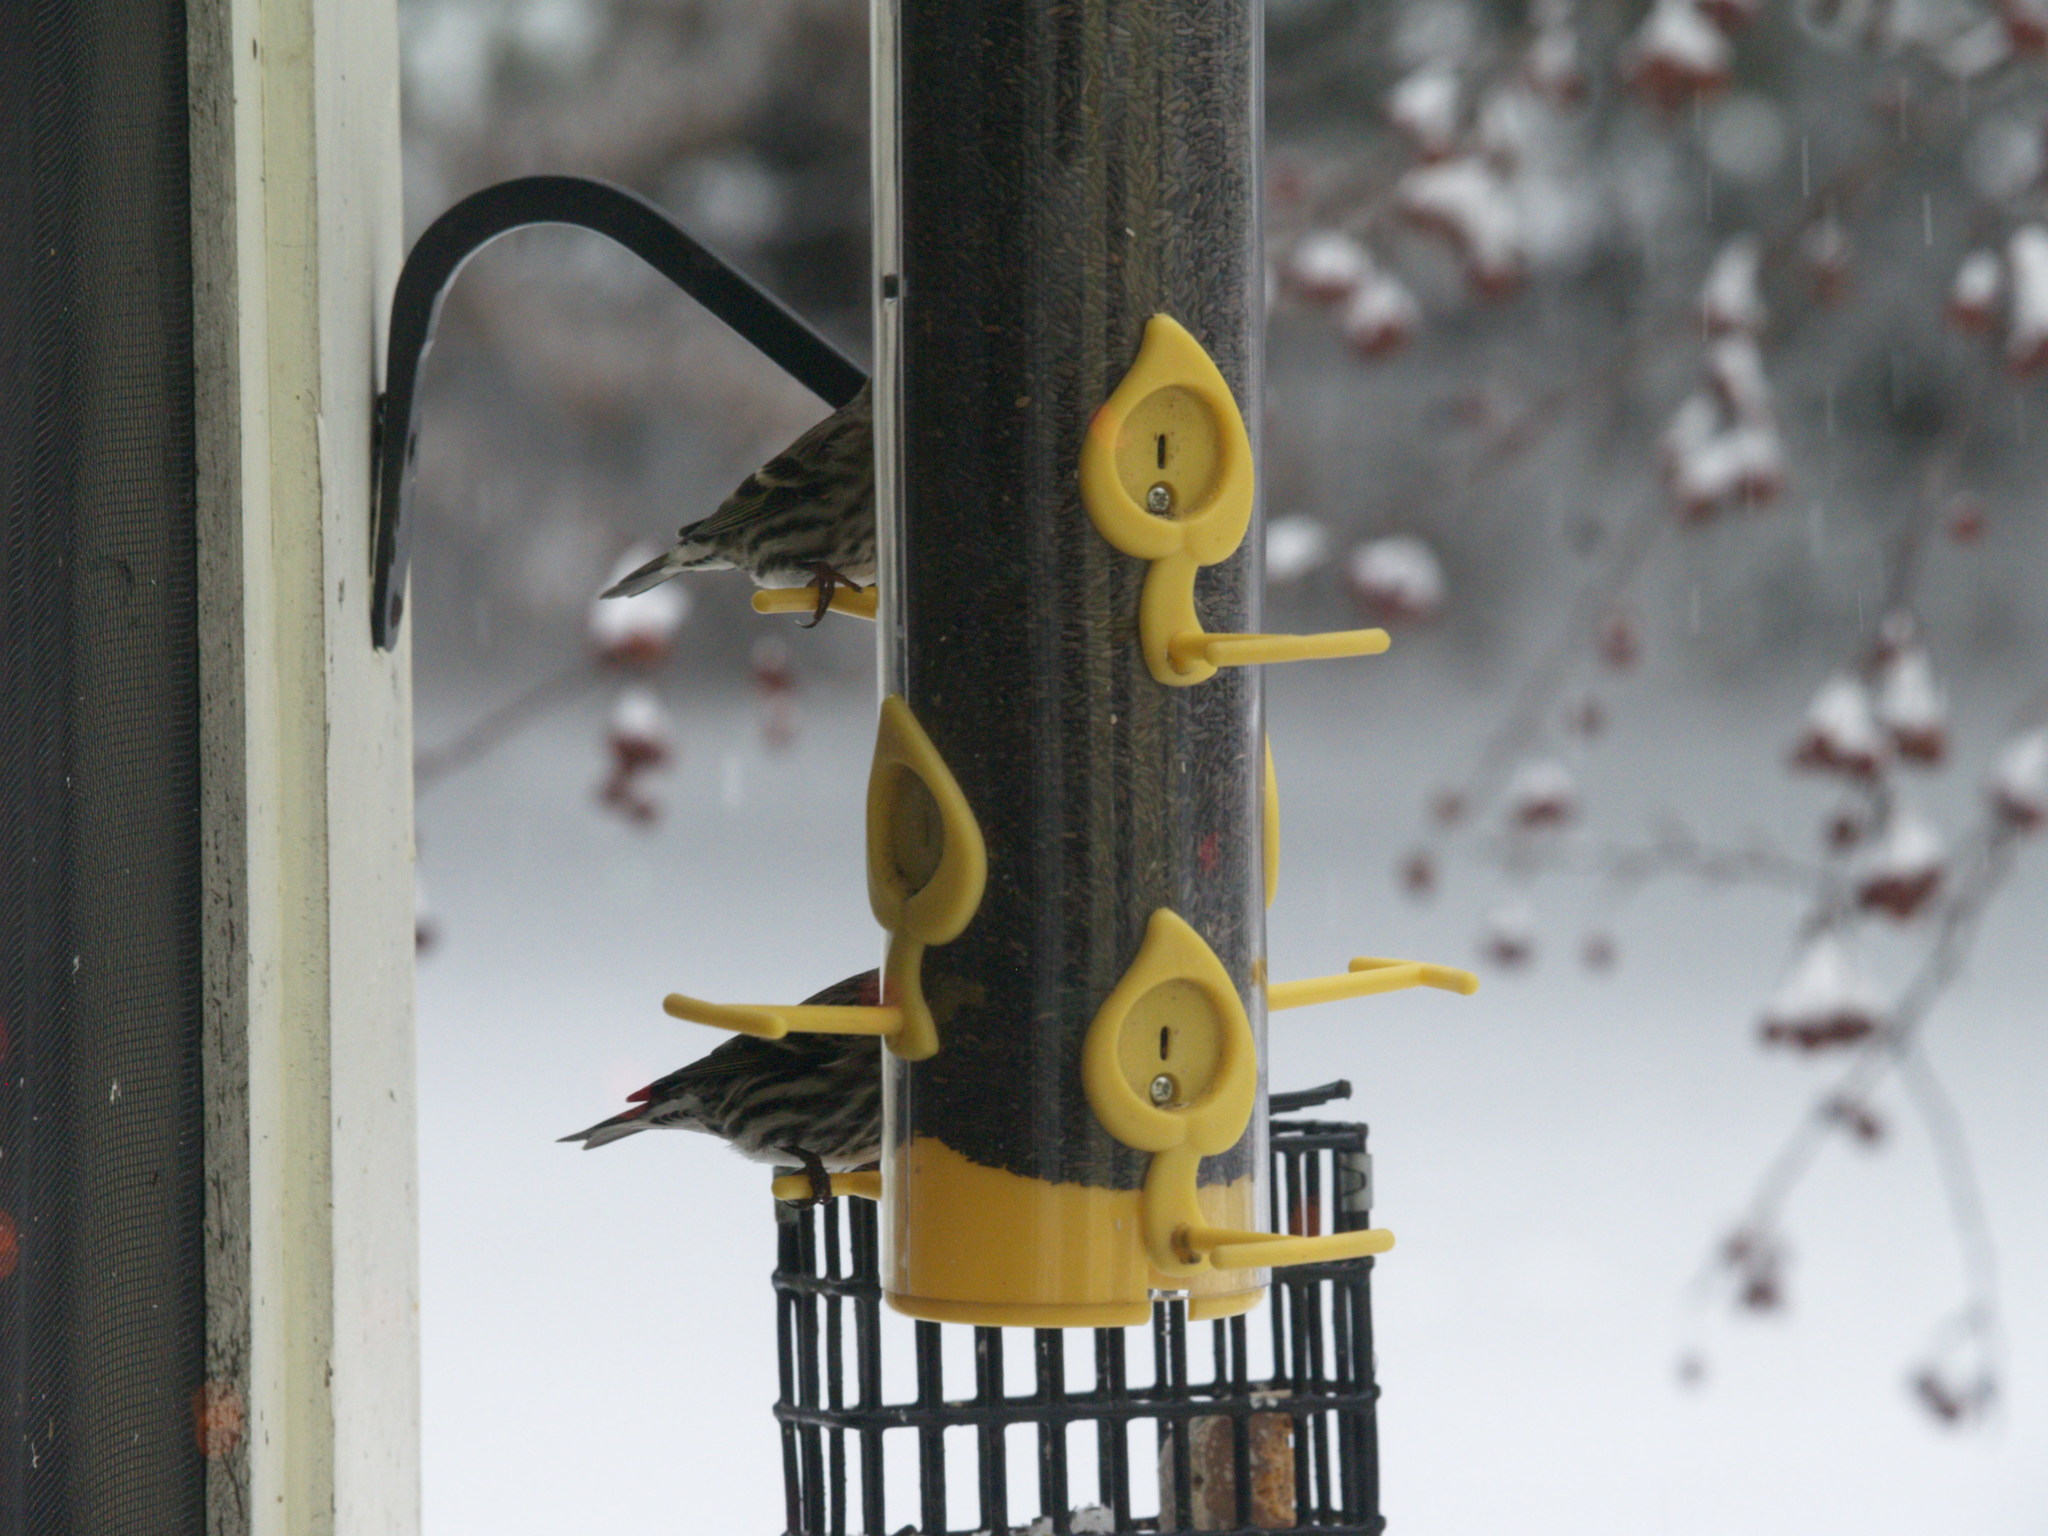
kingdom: Animalia
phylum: Chordata
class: Aves
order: Passeriformes
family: Fringillidae
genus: Spinus
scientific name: Spinus pinus
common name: Pine siskin
